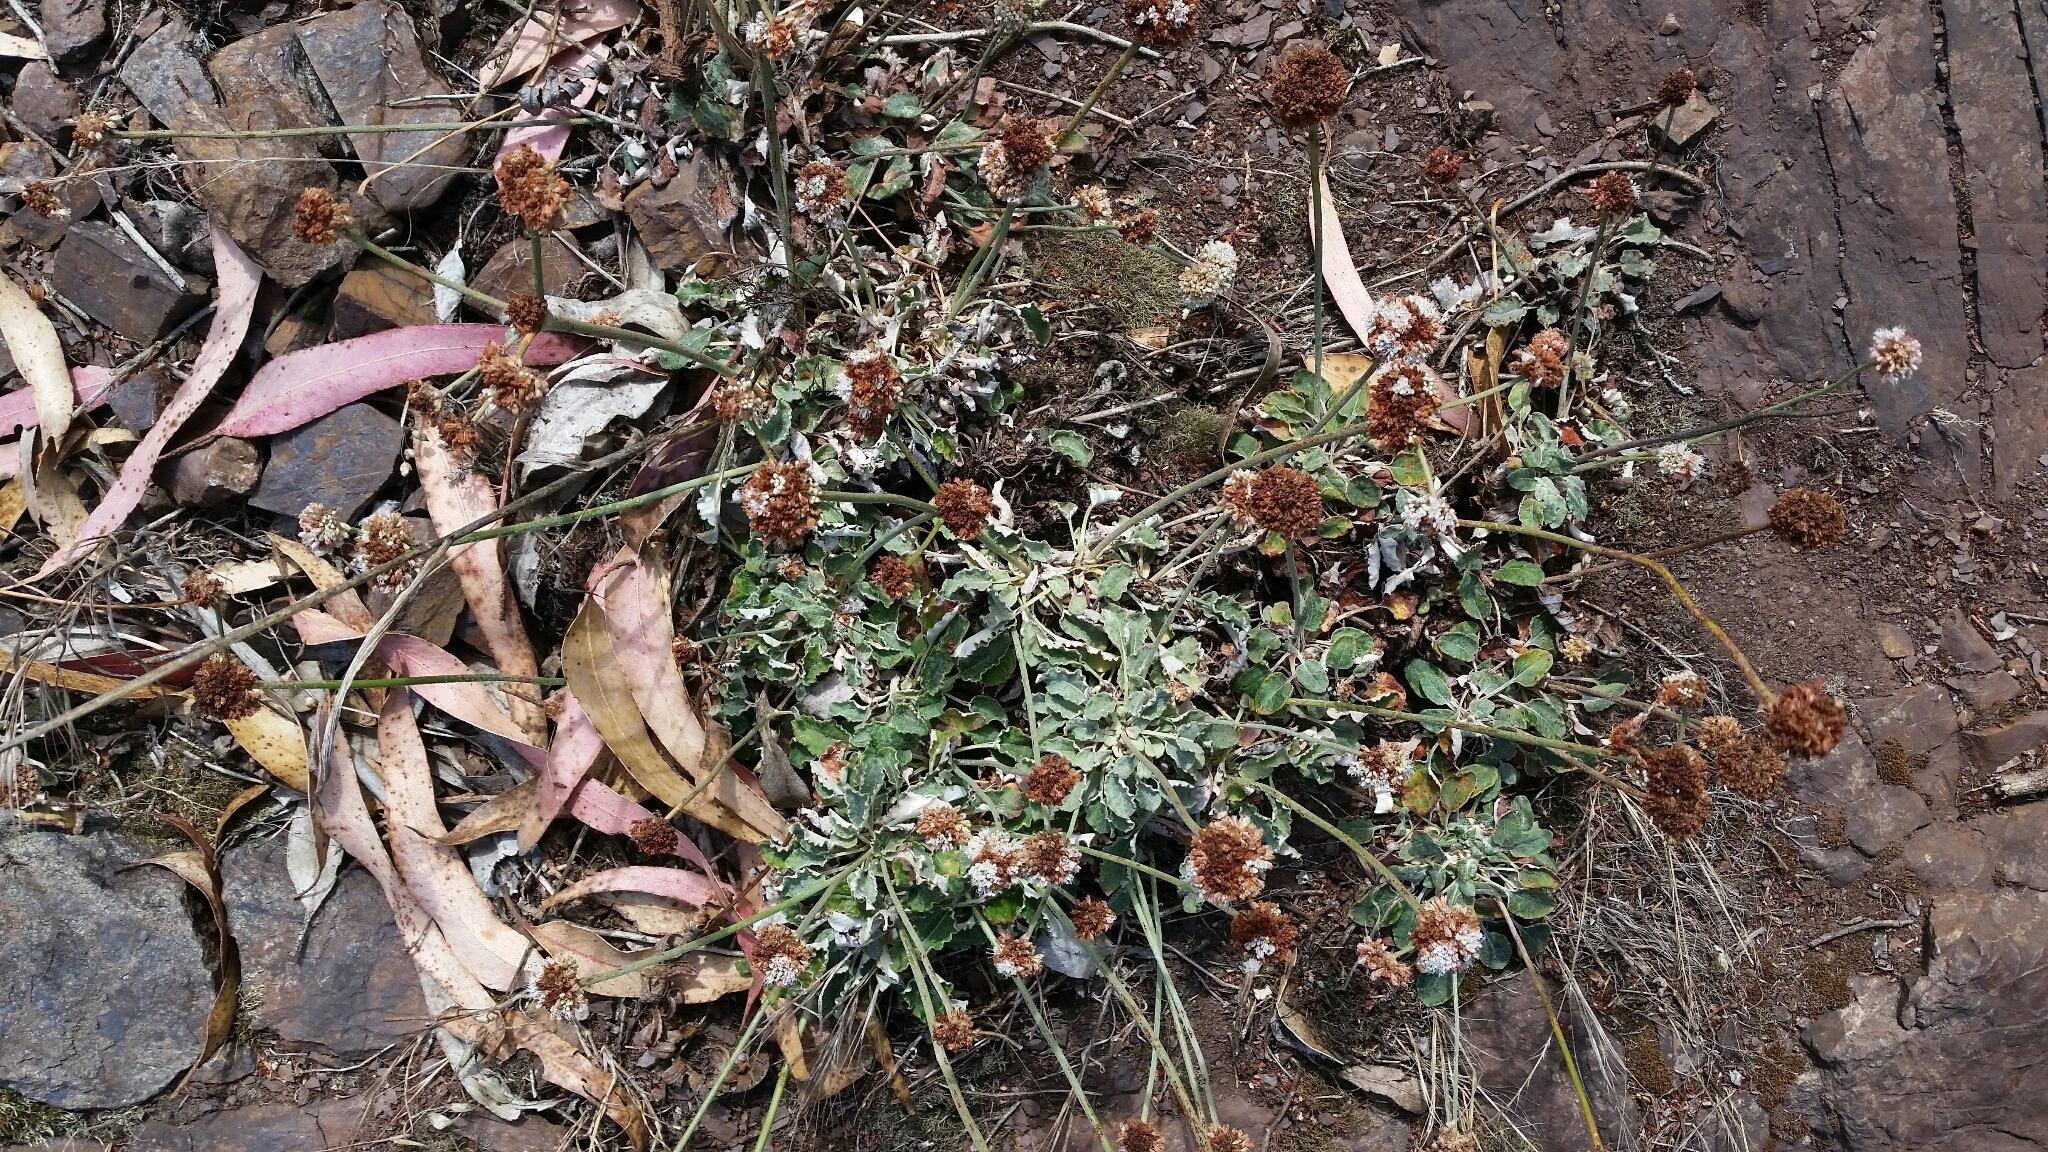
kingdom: Plantae
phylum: Tracheophyta
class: Magnoliopsida
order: Caryophyllales
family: Polygonaceae
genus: Eriogonum
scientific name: Eriogonum latifolium
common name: Seaside wild buckwheat
